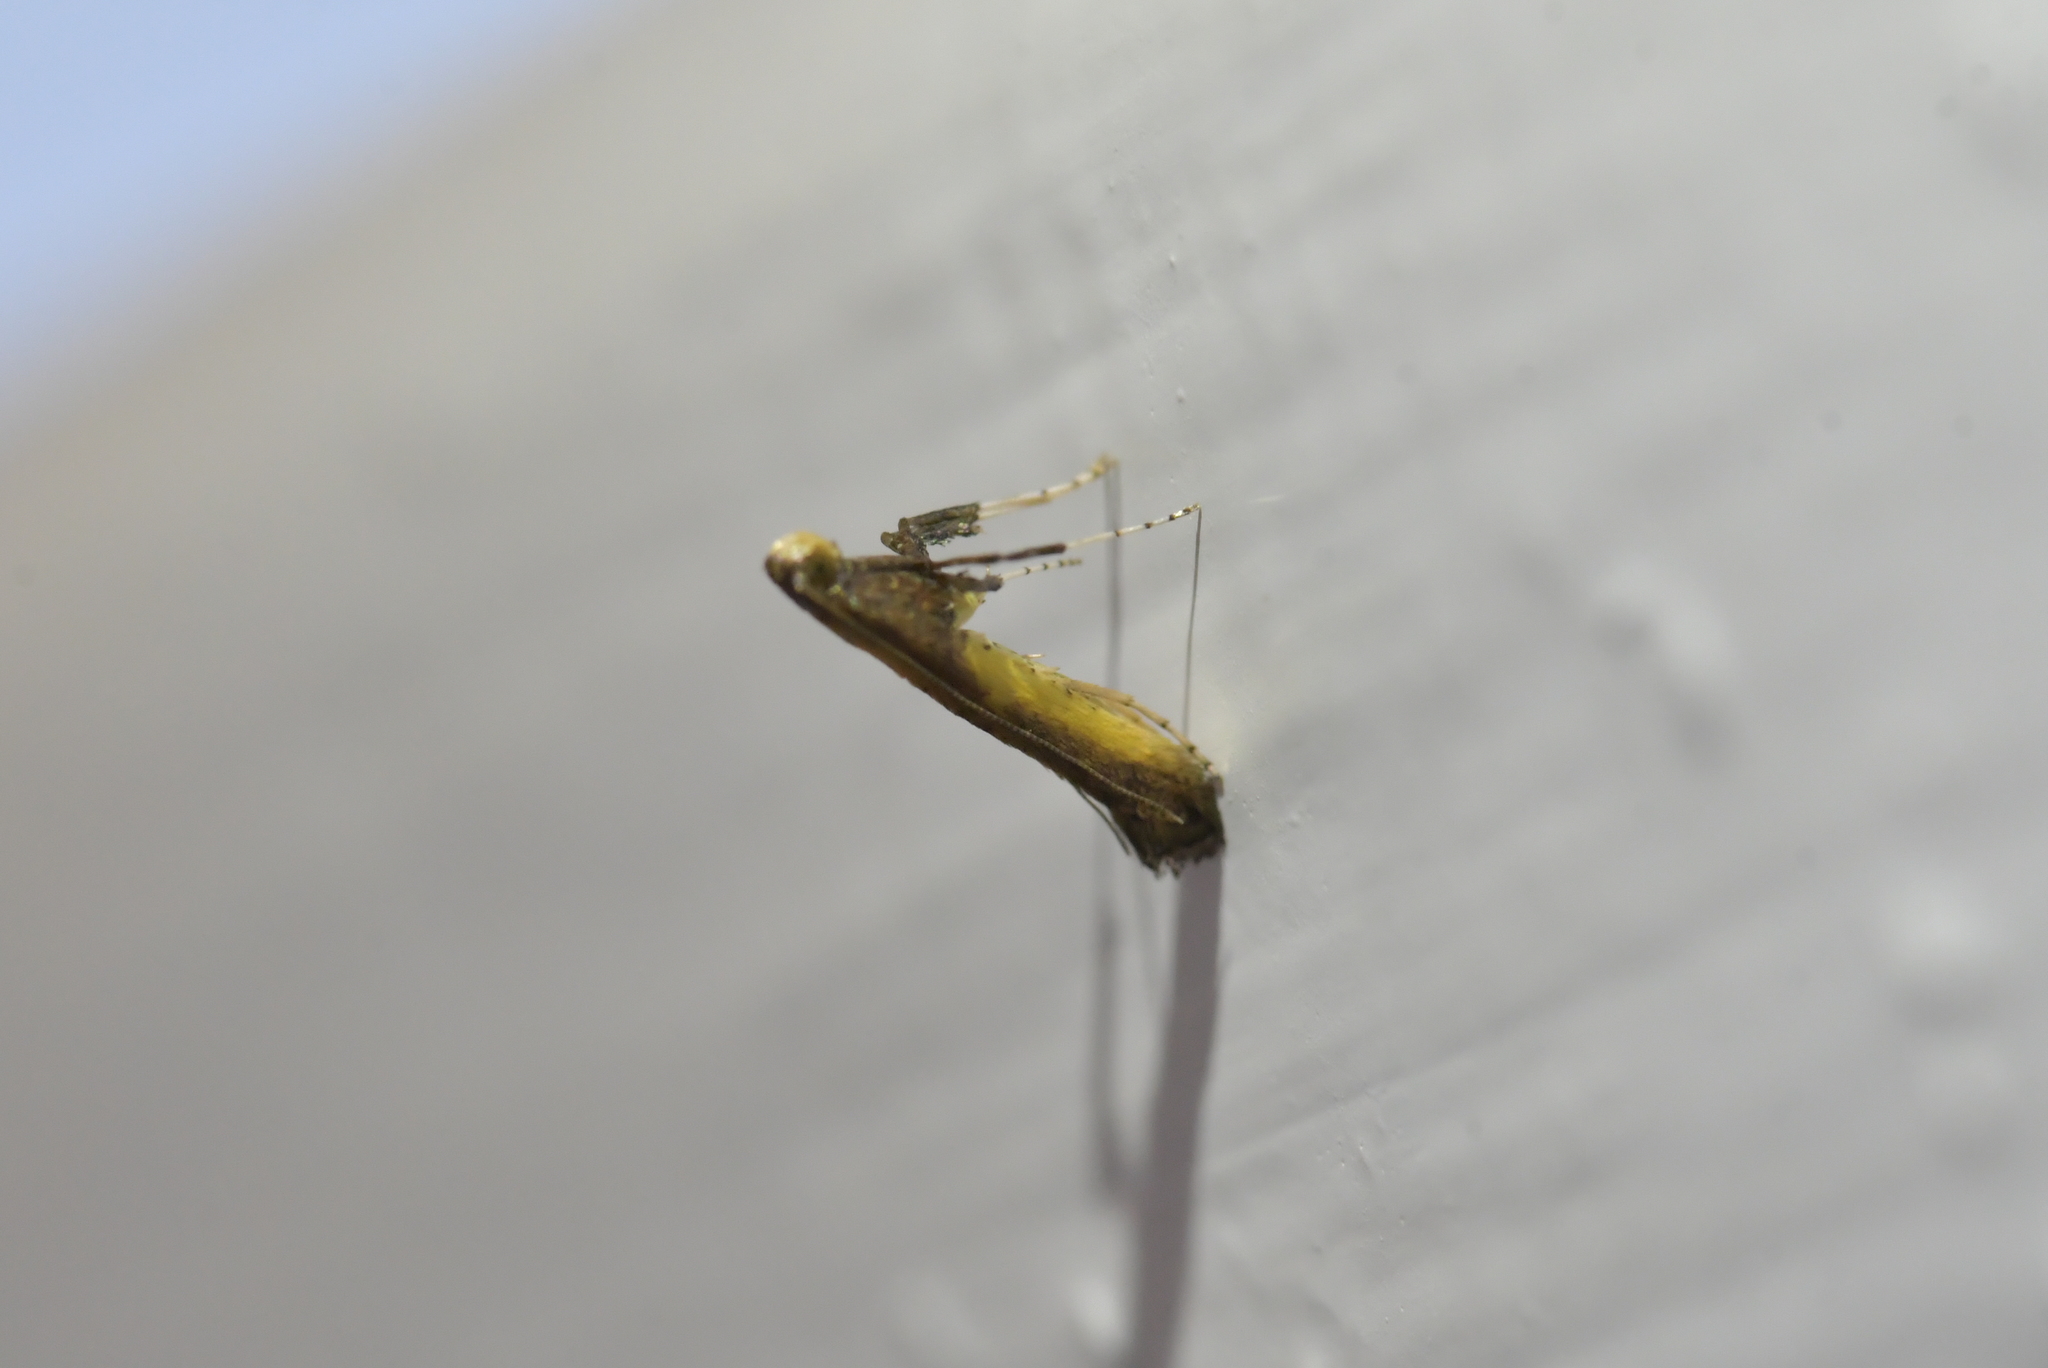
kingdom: Animalia
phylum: Arthropoda
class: Insecta
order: Lepidoptera
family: Gracillariidae
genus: Caloptilia
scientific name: Caloptilia azaleella
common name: Azalea leafminer
